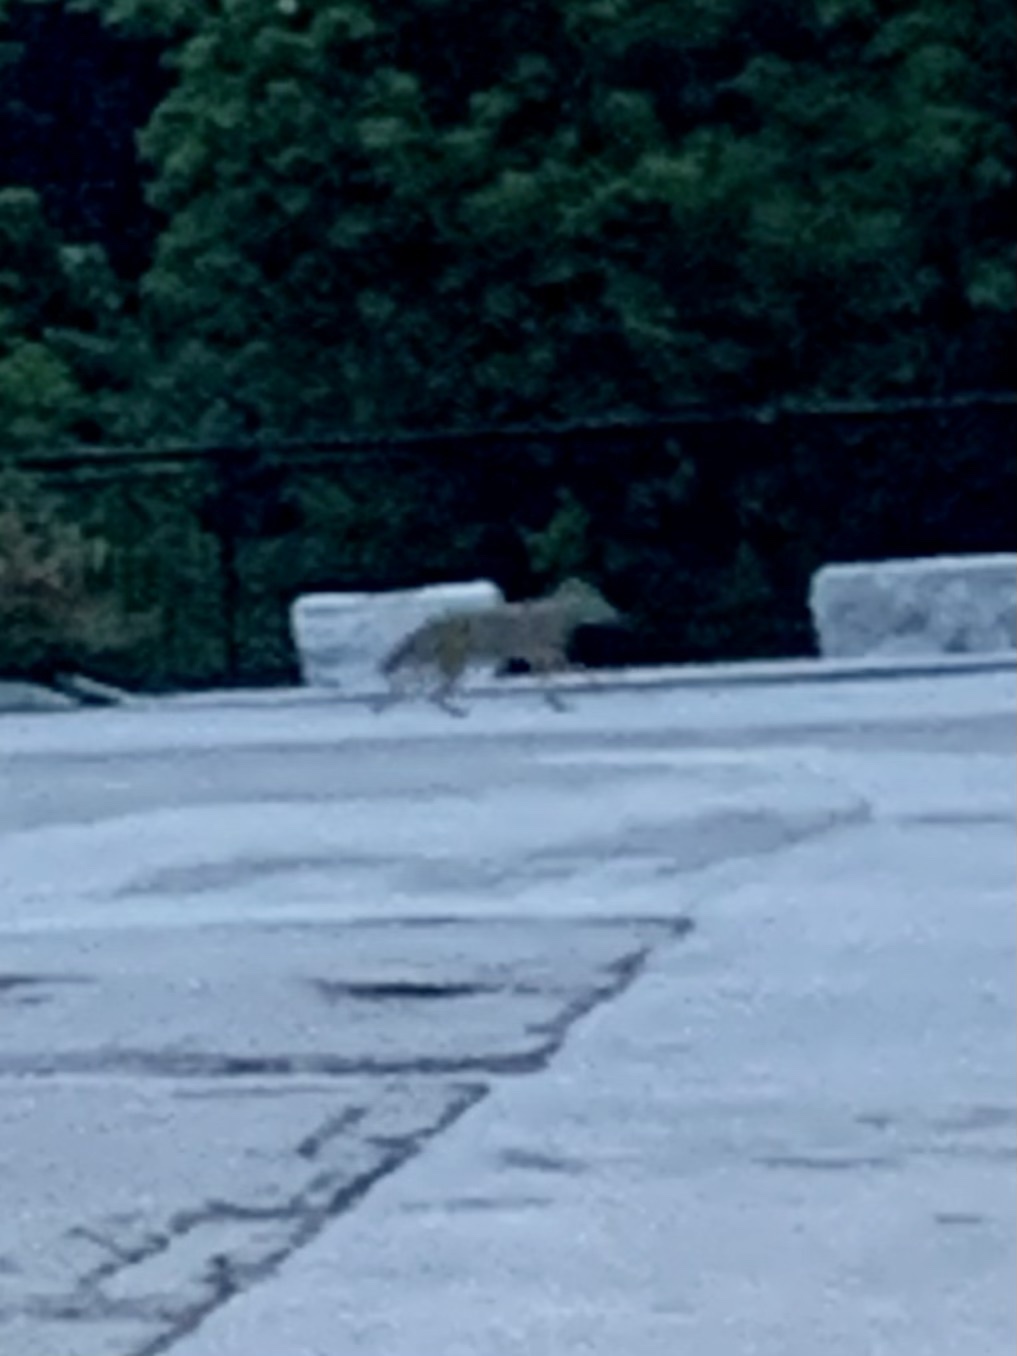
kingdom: Animalia
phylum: Chordata
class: Mammalia
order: Carnivora
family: Canidae
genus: Canis
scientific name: Canis latrans
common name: Coyote
